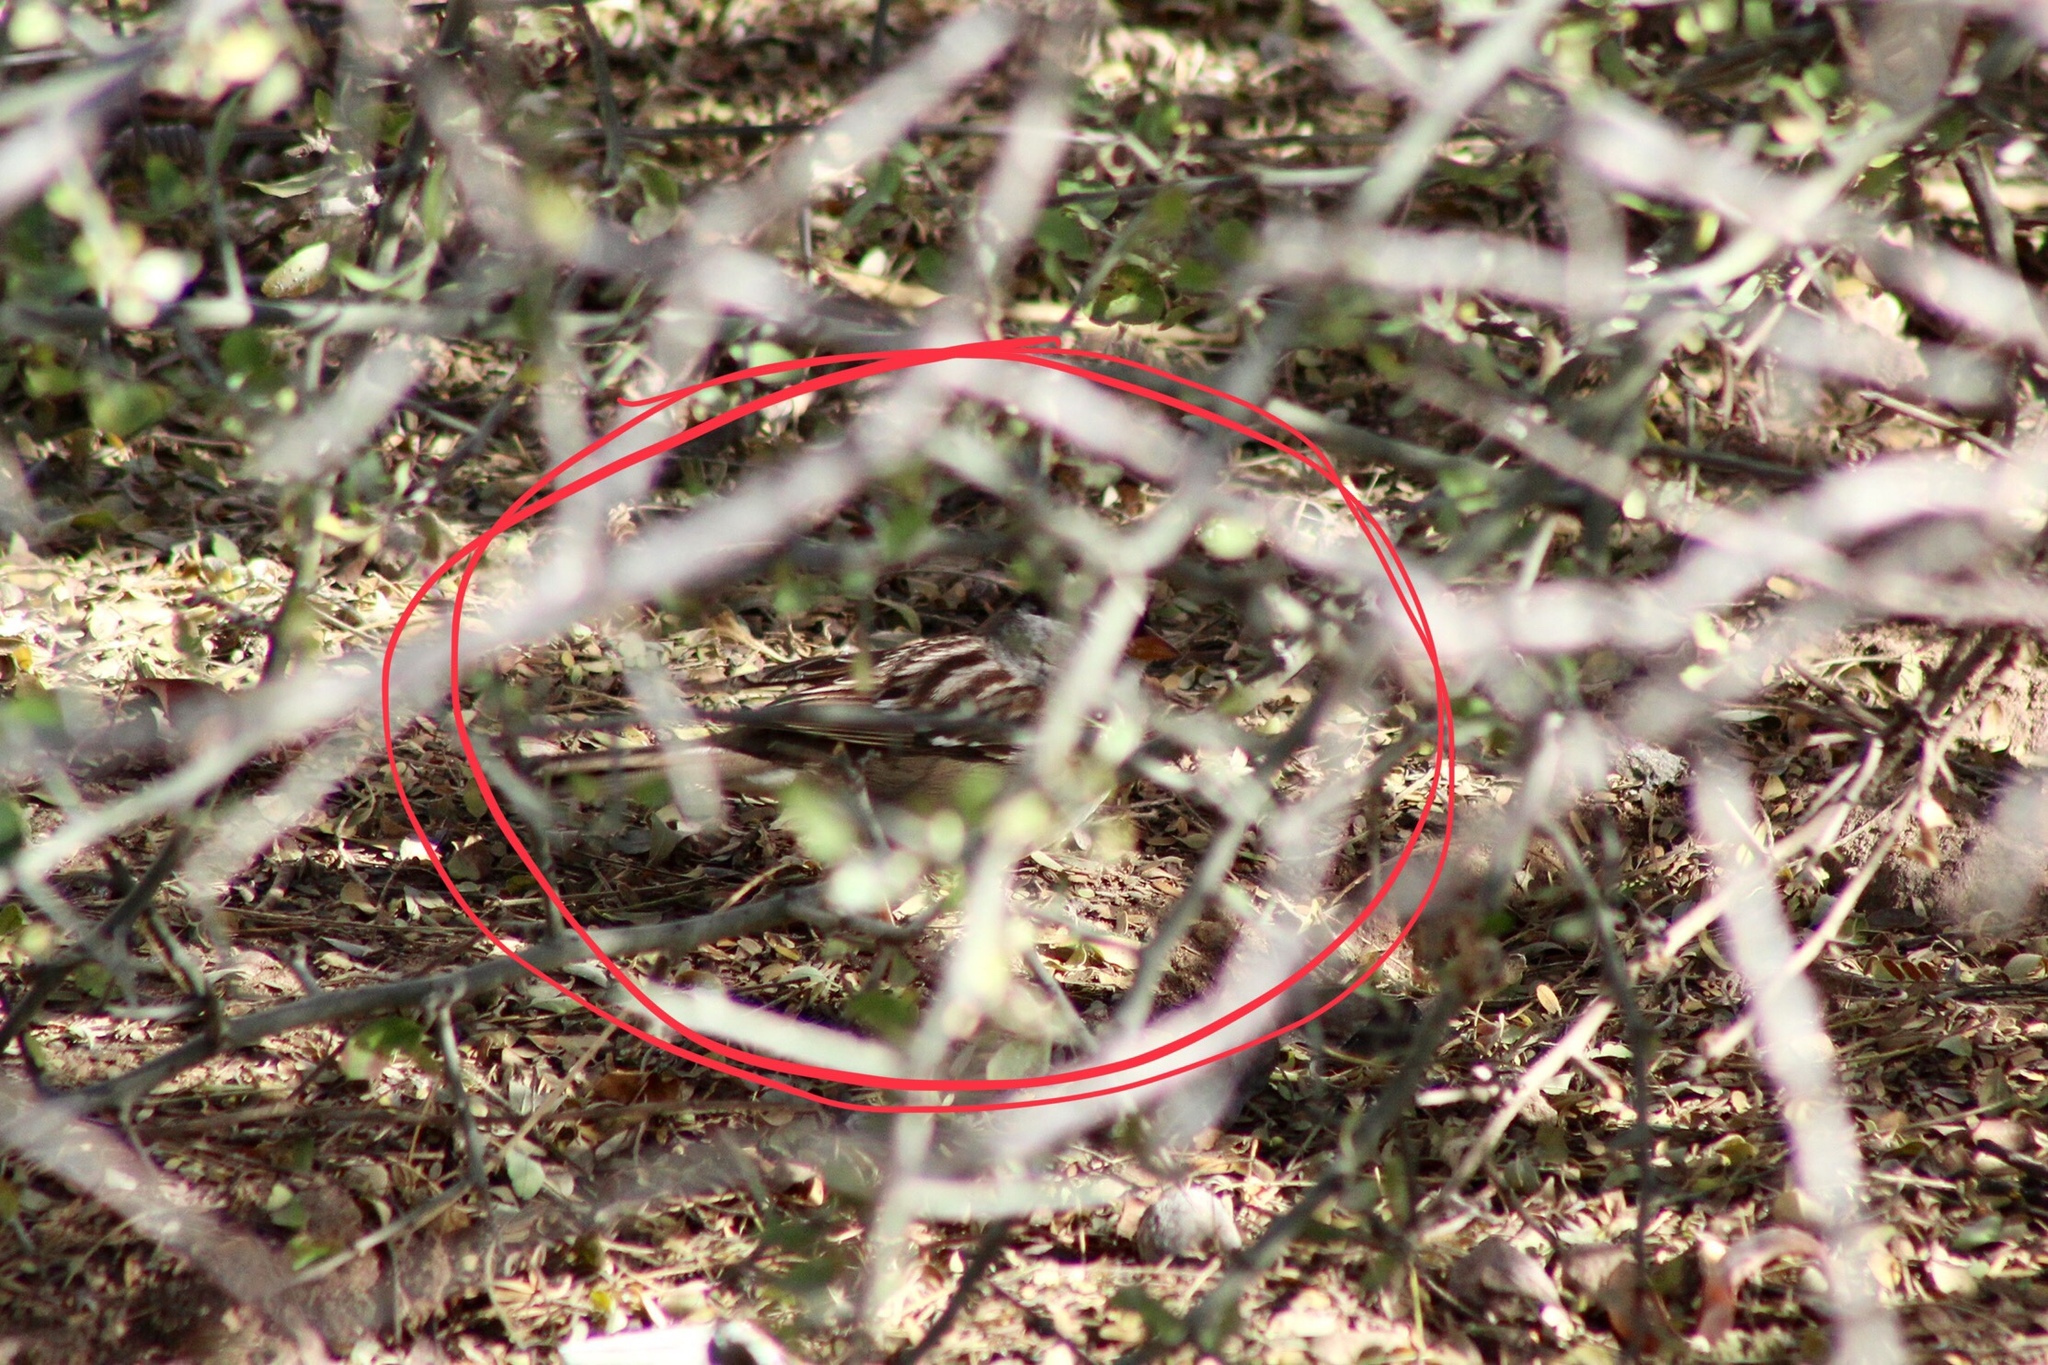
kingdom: Animalia
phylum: Chordata
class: Aves
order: Passeriformes
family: Passerellidae
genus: Zonotrichia
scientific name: Zonotrichia leucophrys
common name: White-crowned sparrow
